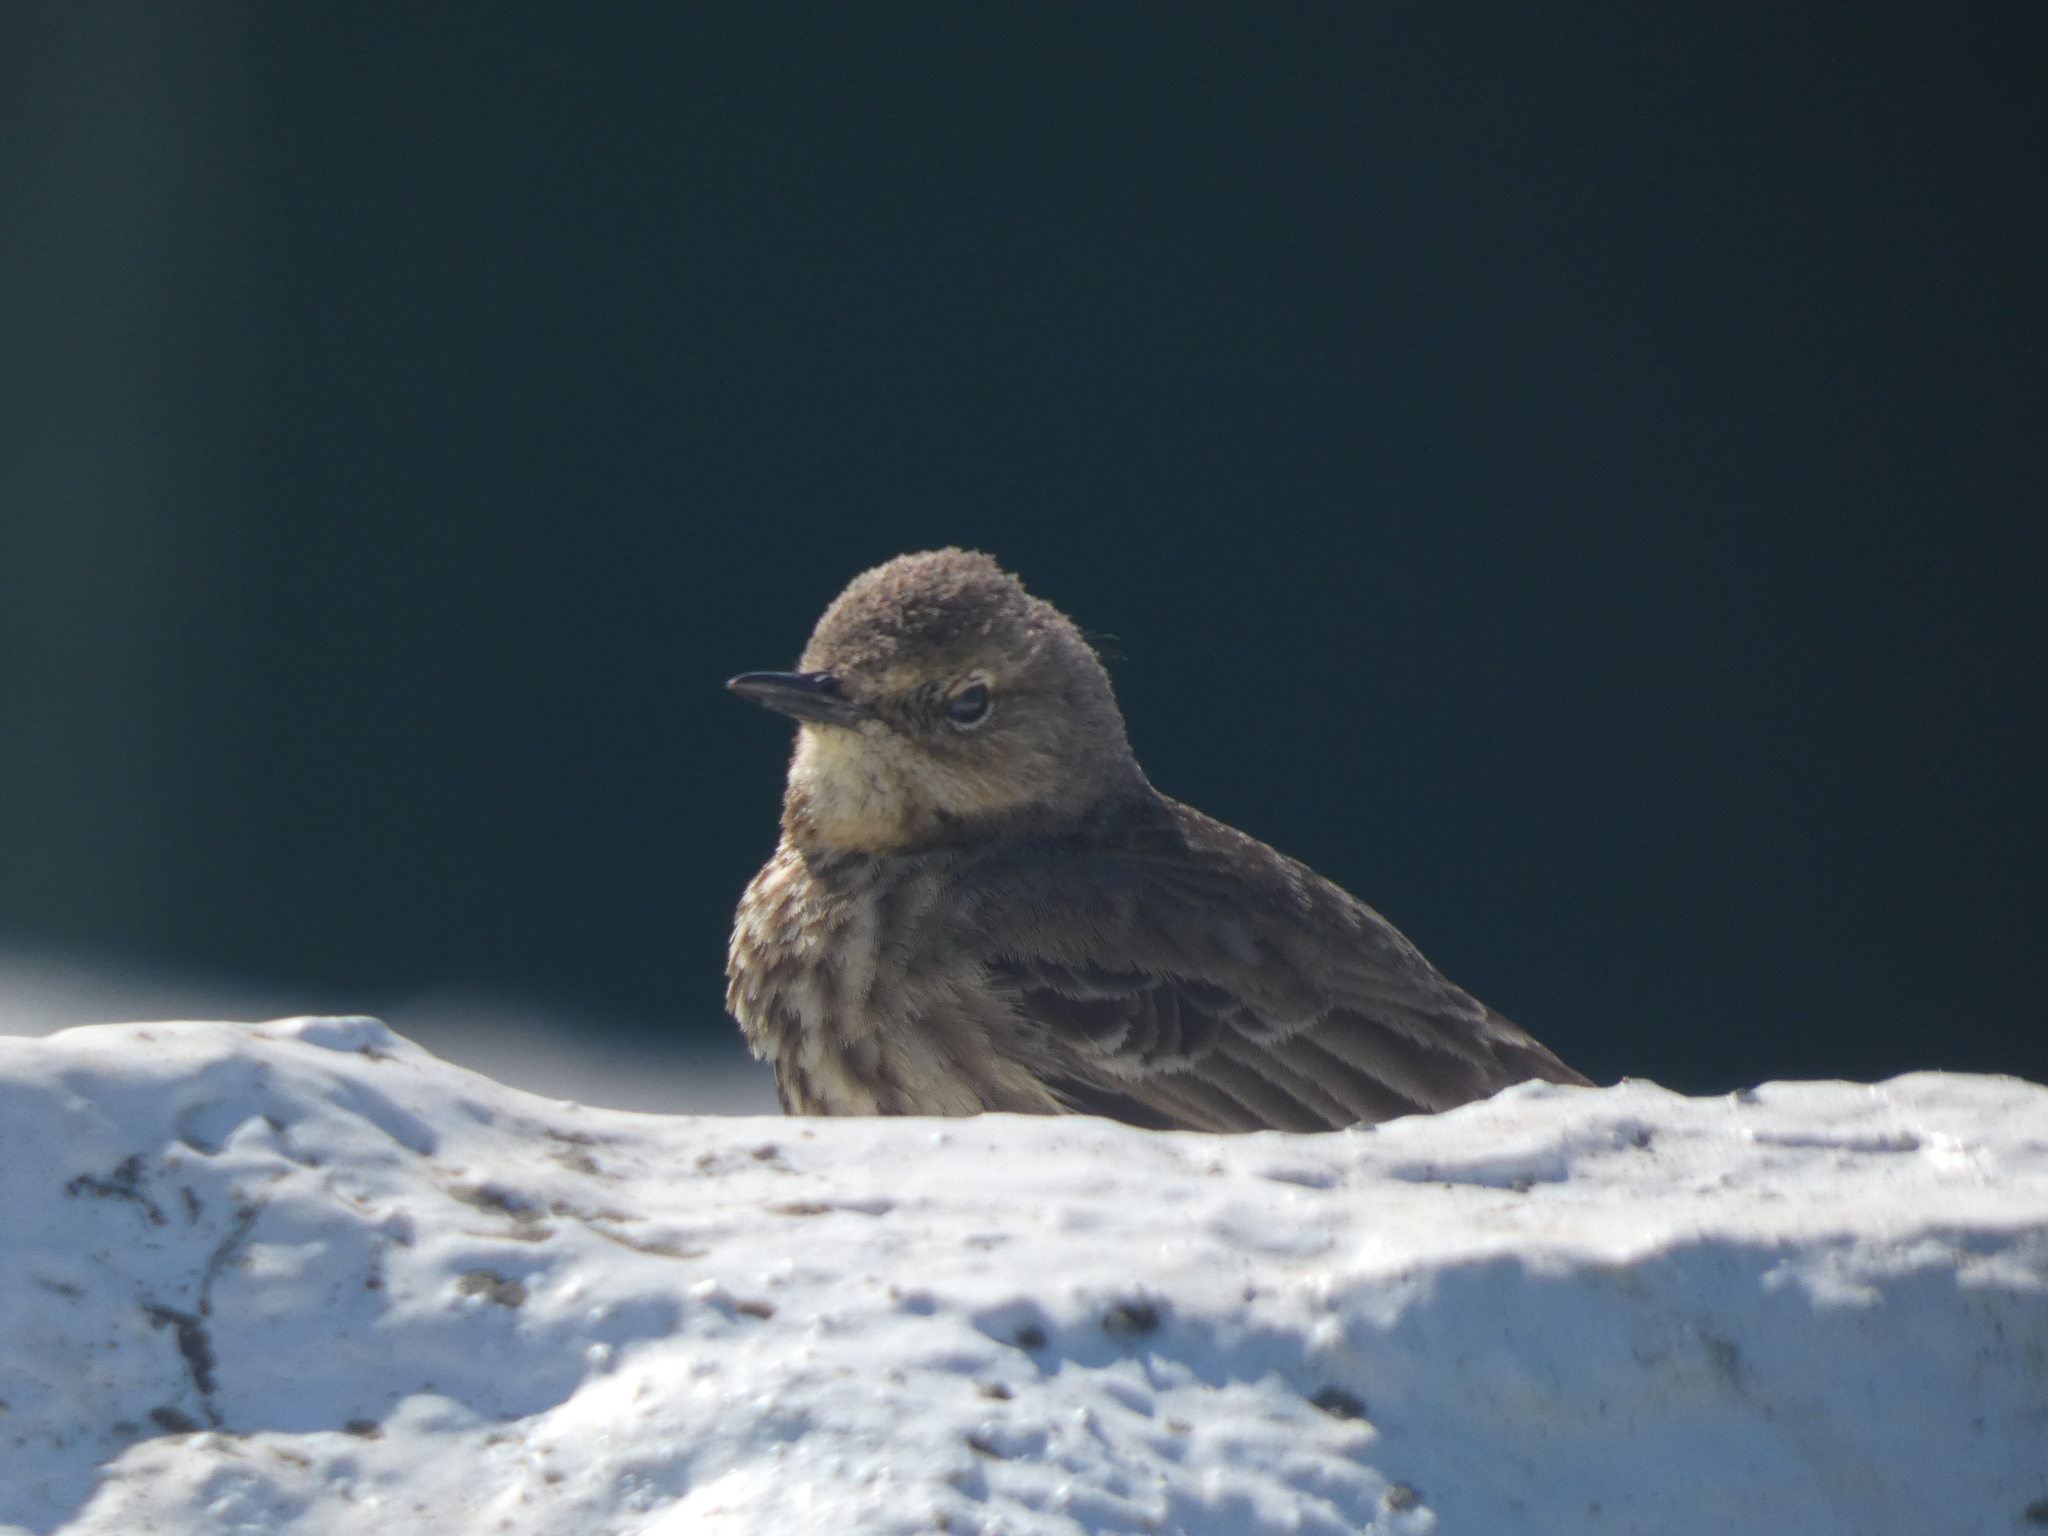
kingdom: Animalia
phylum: Chordata
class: Aves
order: Passeriformes
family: Motacillidae
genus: Anthus
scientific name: Anthus petrosus
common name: Eurasian rock pipit
